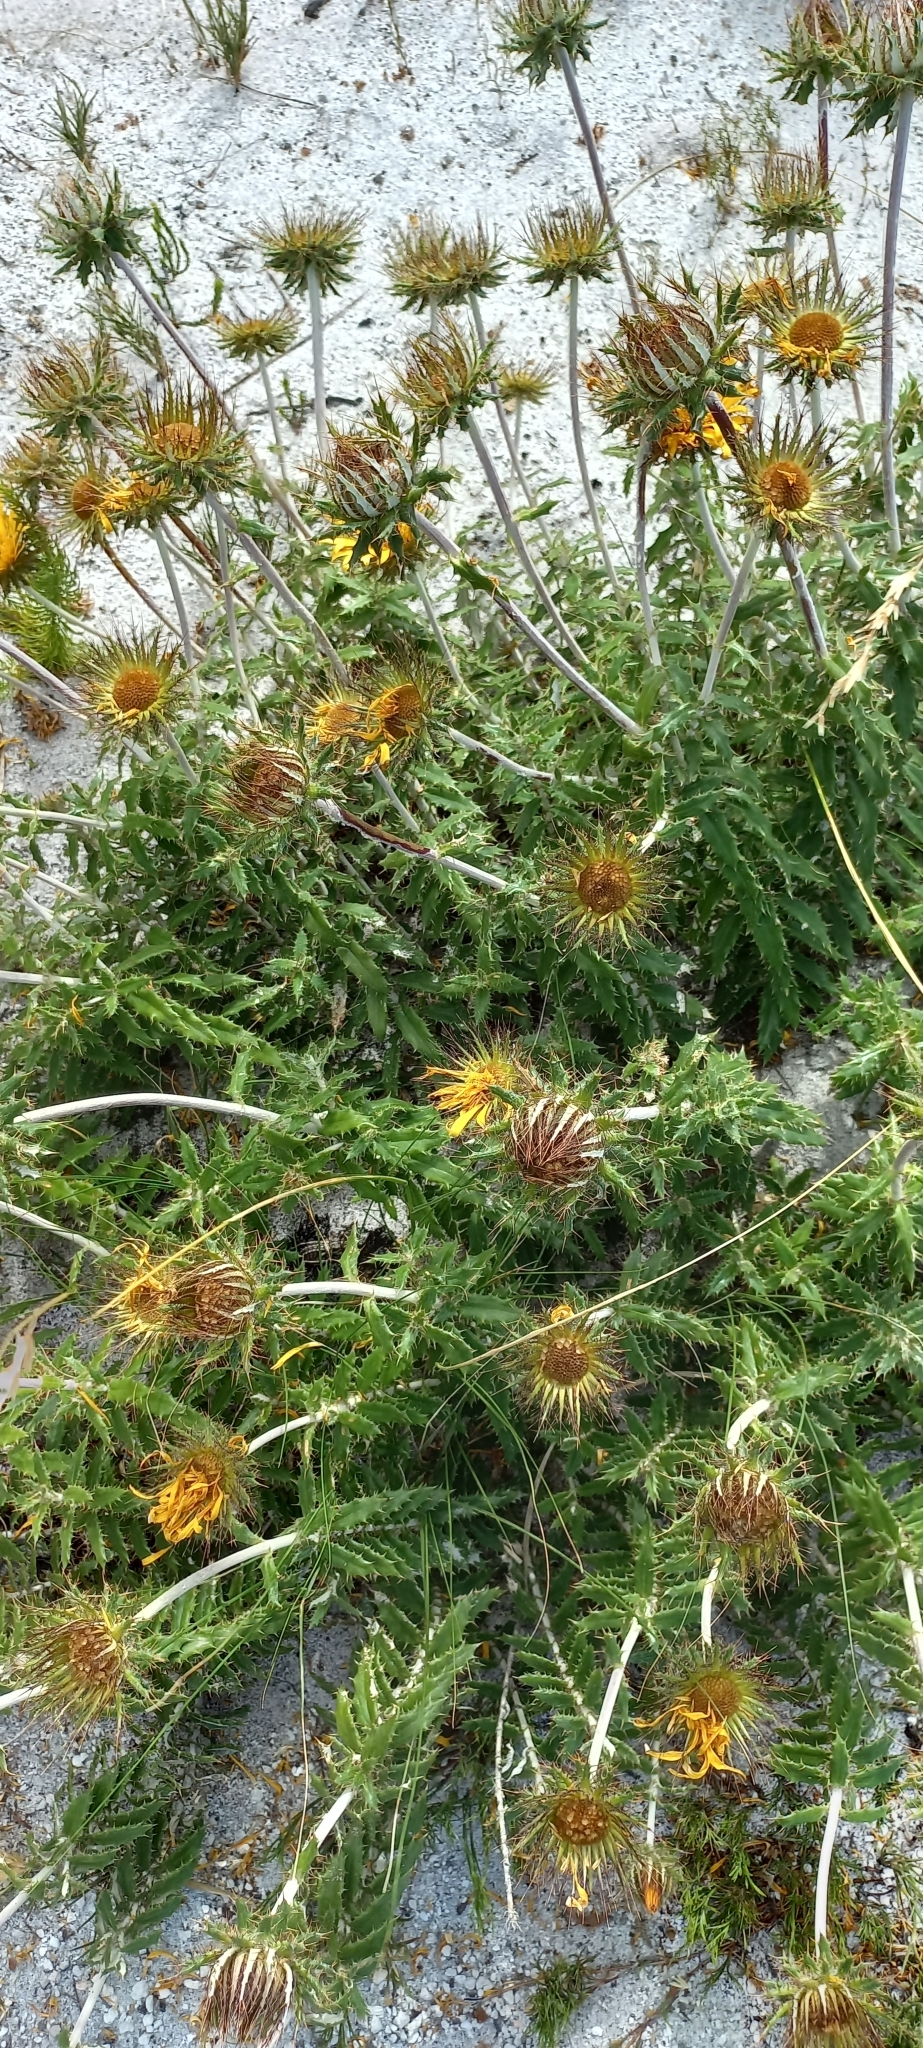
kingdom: Plantae
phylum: Tracheophyta
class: Magnoliopsida
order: Asterales
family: Asteraceae
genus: Berkheya
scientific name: Berkheya barbata
